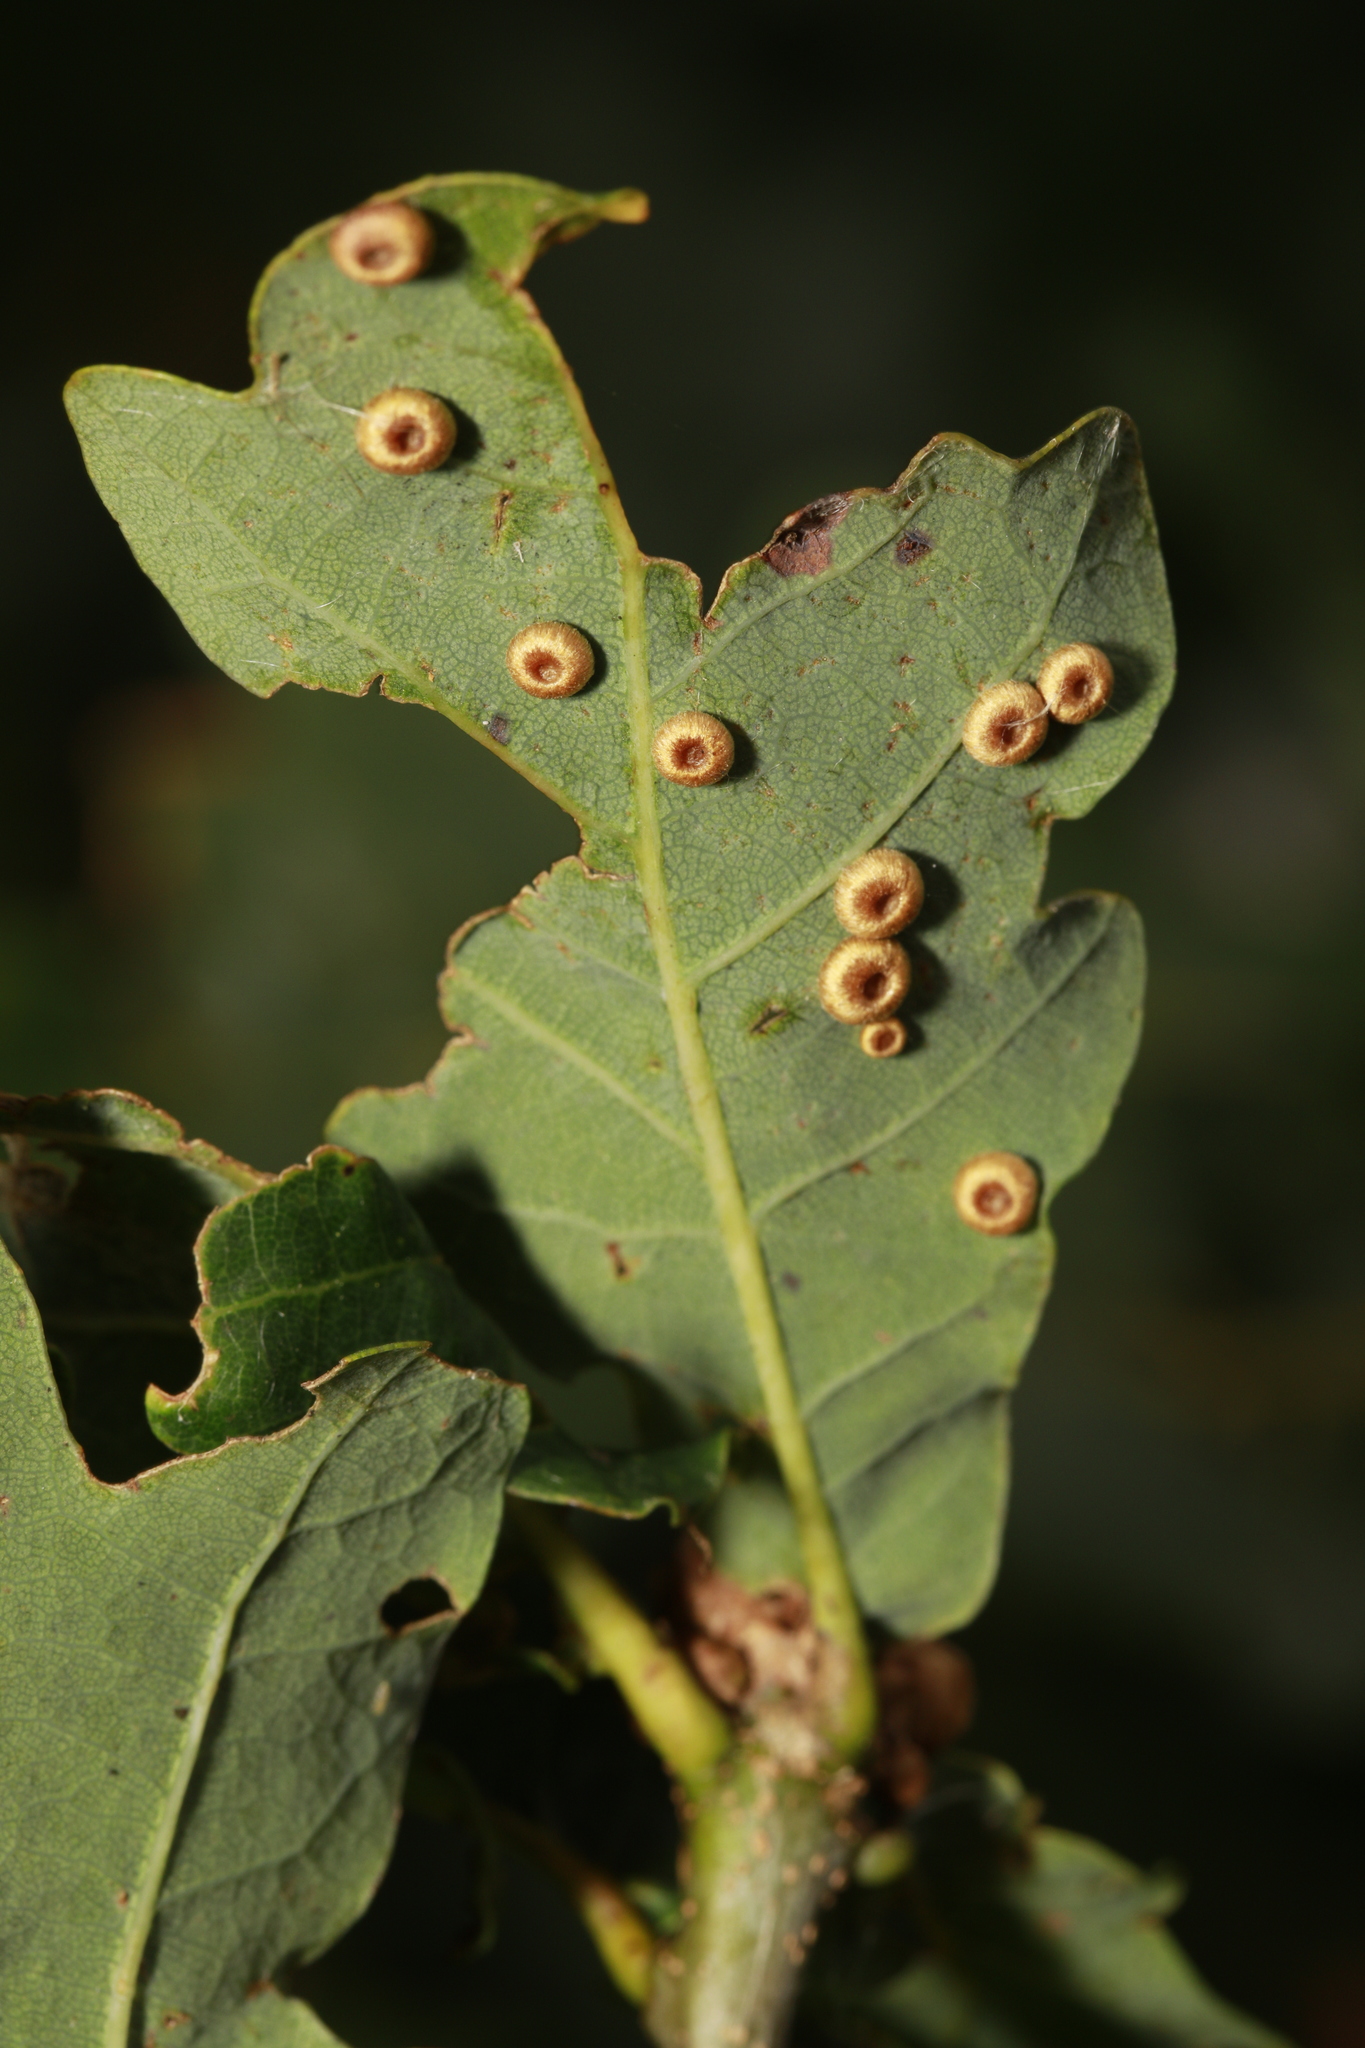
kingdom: Animalia
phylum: Arthropoda
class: Insecta
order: Hymenoptera
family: Cynipidae
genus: Neuroterus
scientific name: Neuroterus numismalis
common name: Silk-button spangle gall
